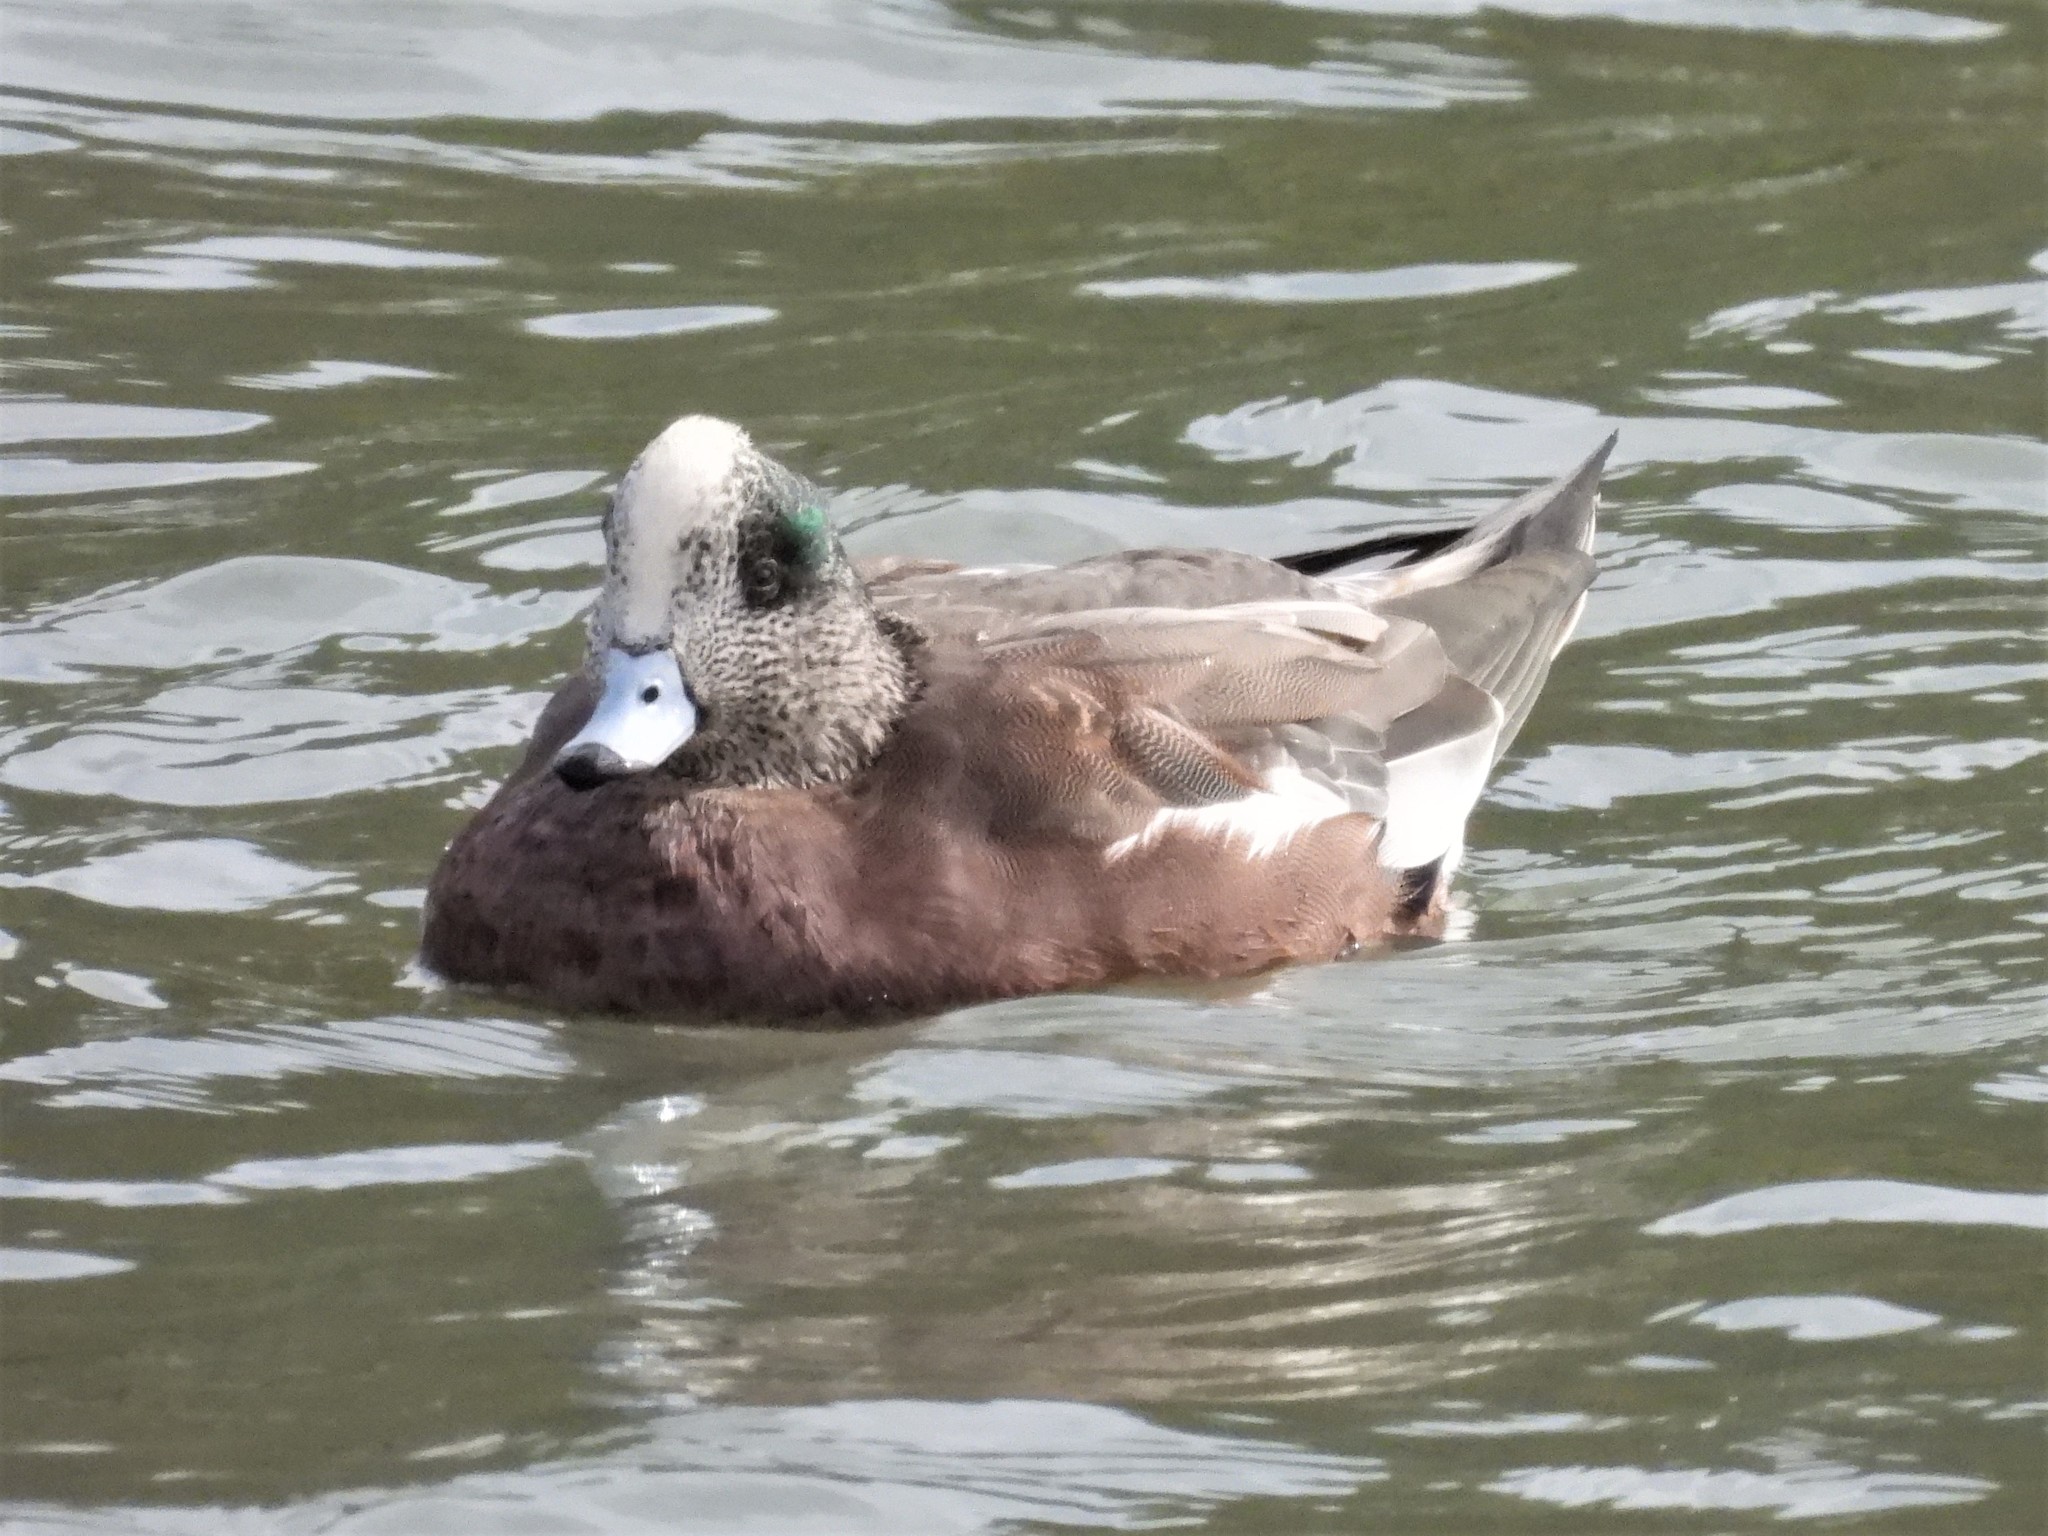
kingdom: Animalia
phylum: Chordata
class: Aves
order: Anseriformes
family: Anatidae
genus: Mareca
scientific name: Mareca americana
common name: American wigeon
